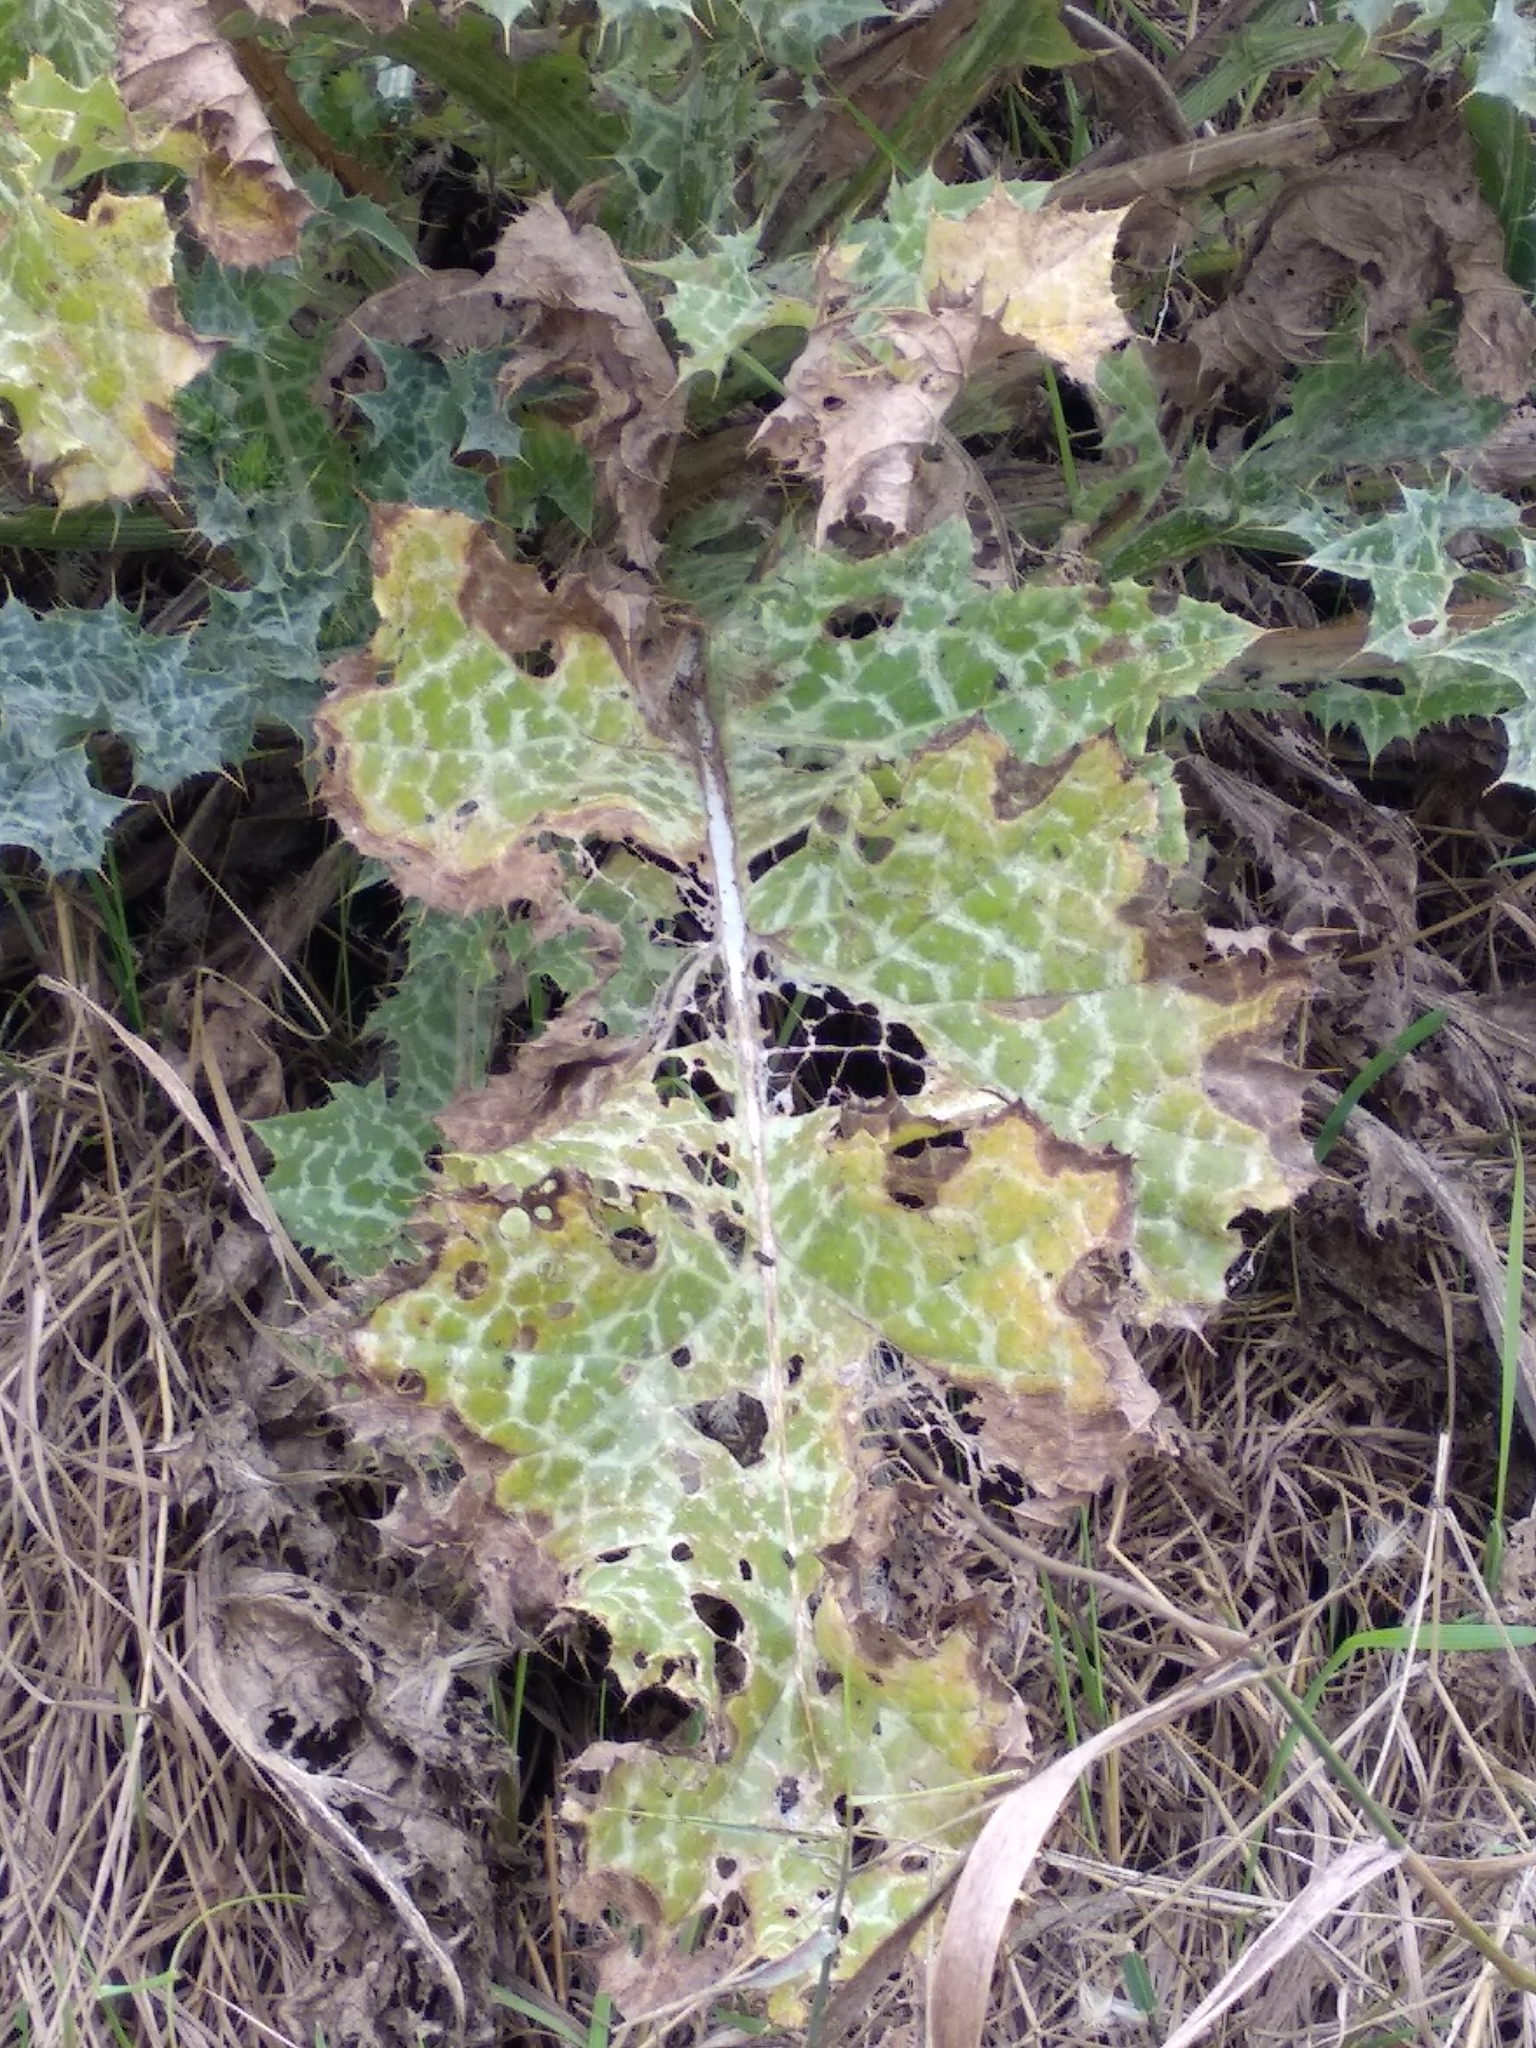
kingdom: Plantae
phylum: Tracheophyta
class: Magnoliopsida
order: Asterales
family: Asteraceae
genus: Silybum
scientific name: Silybum marianum
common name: Milk thistle
